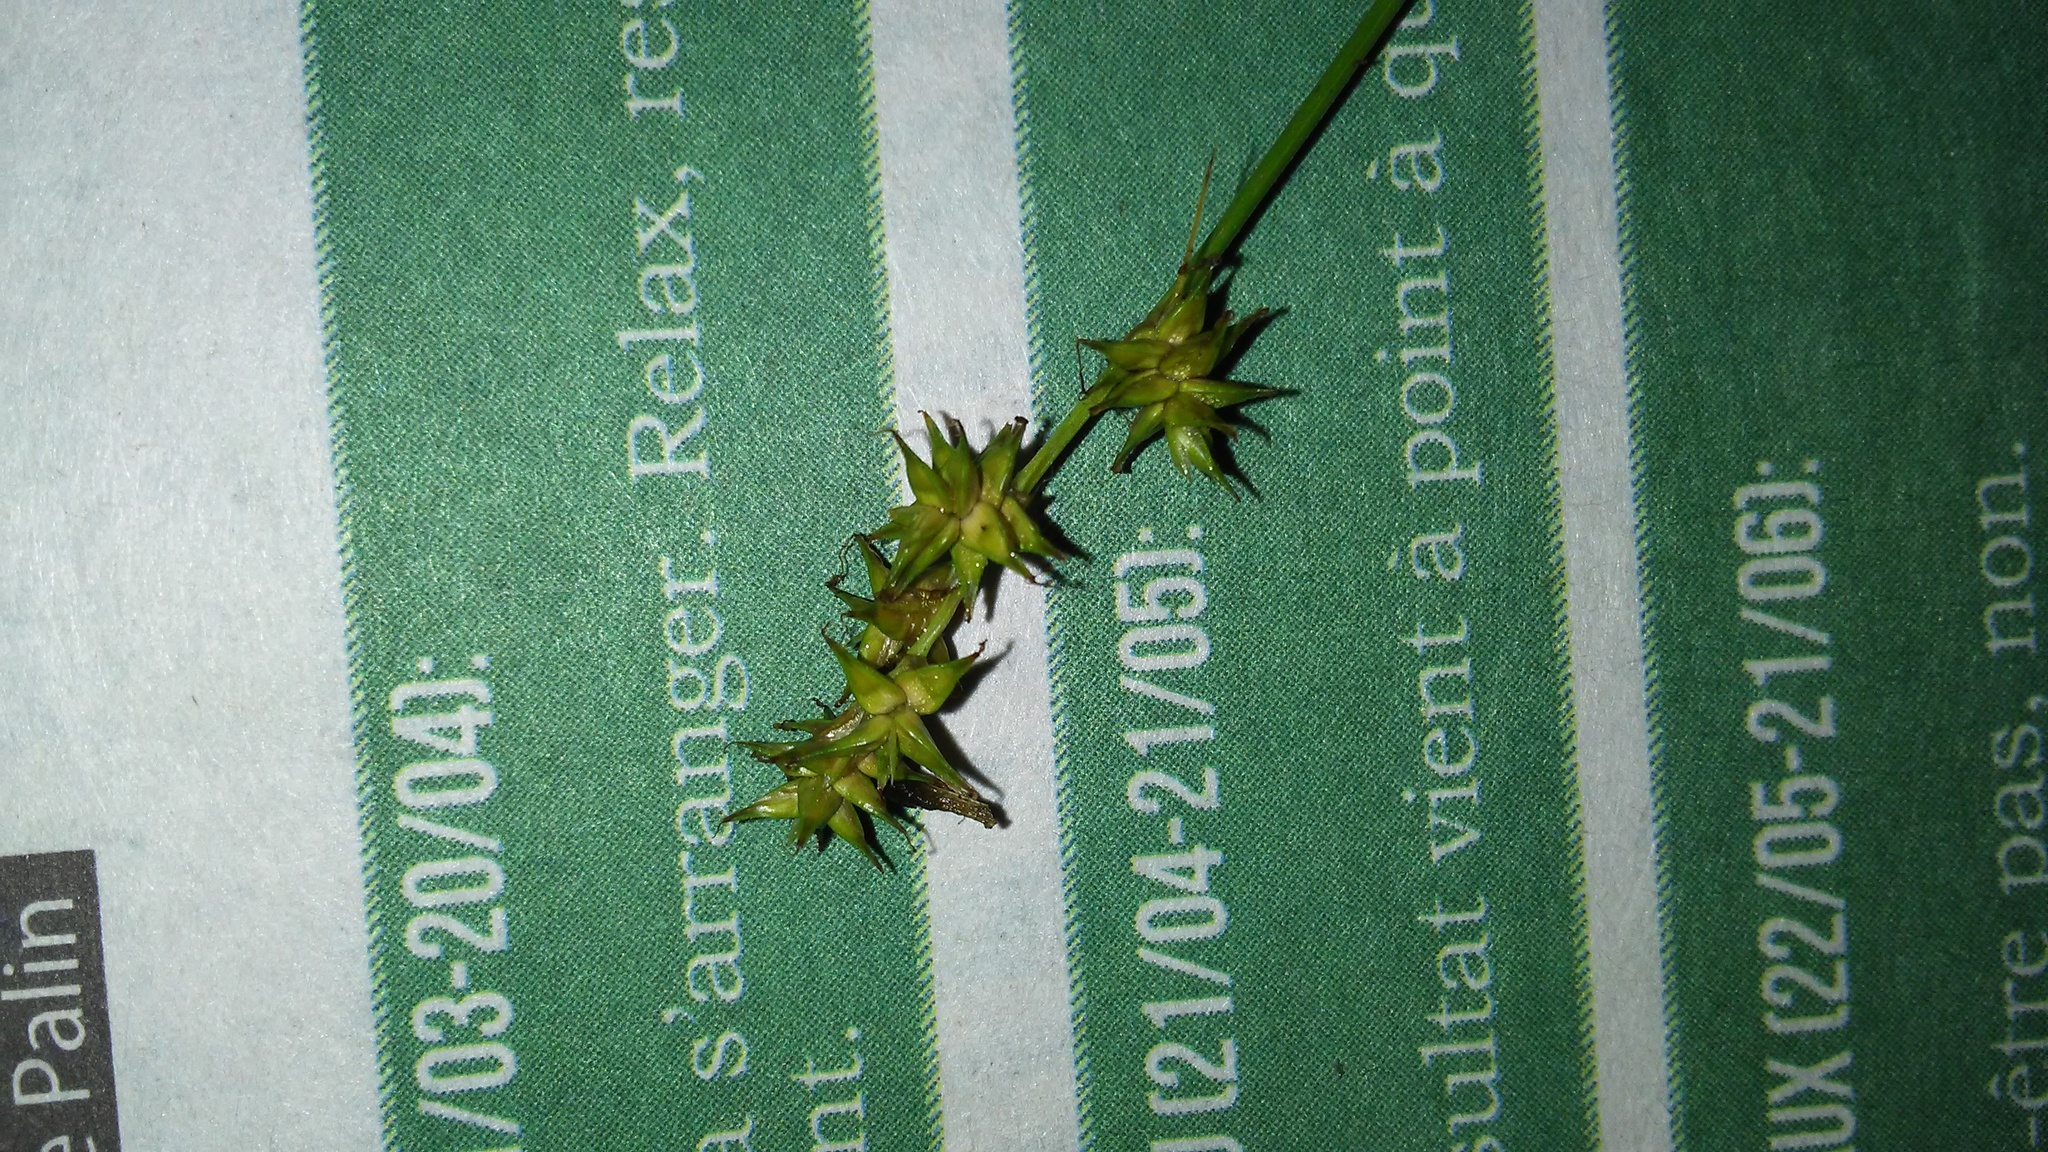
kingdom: Plantae
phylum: Tracheophyta
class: Liliopsida
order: Poales
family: Cyperaceae
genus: Carex
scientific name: Carex echinata
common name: Star sedge
